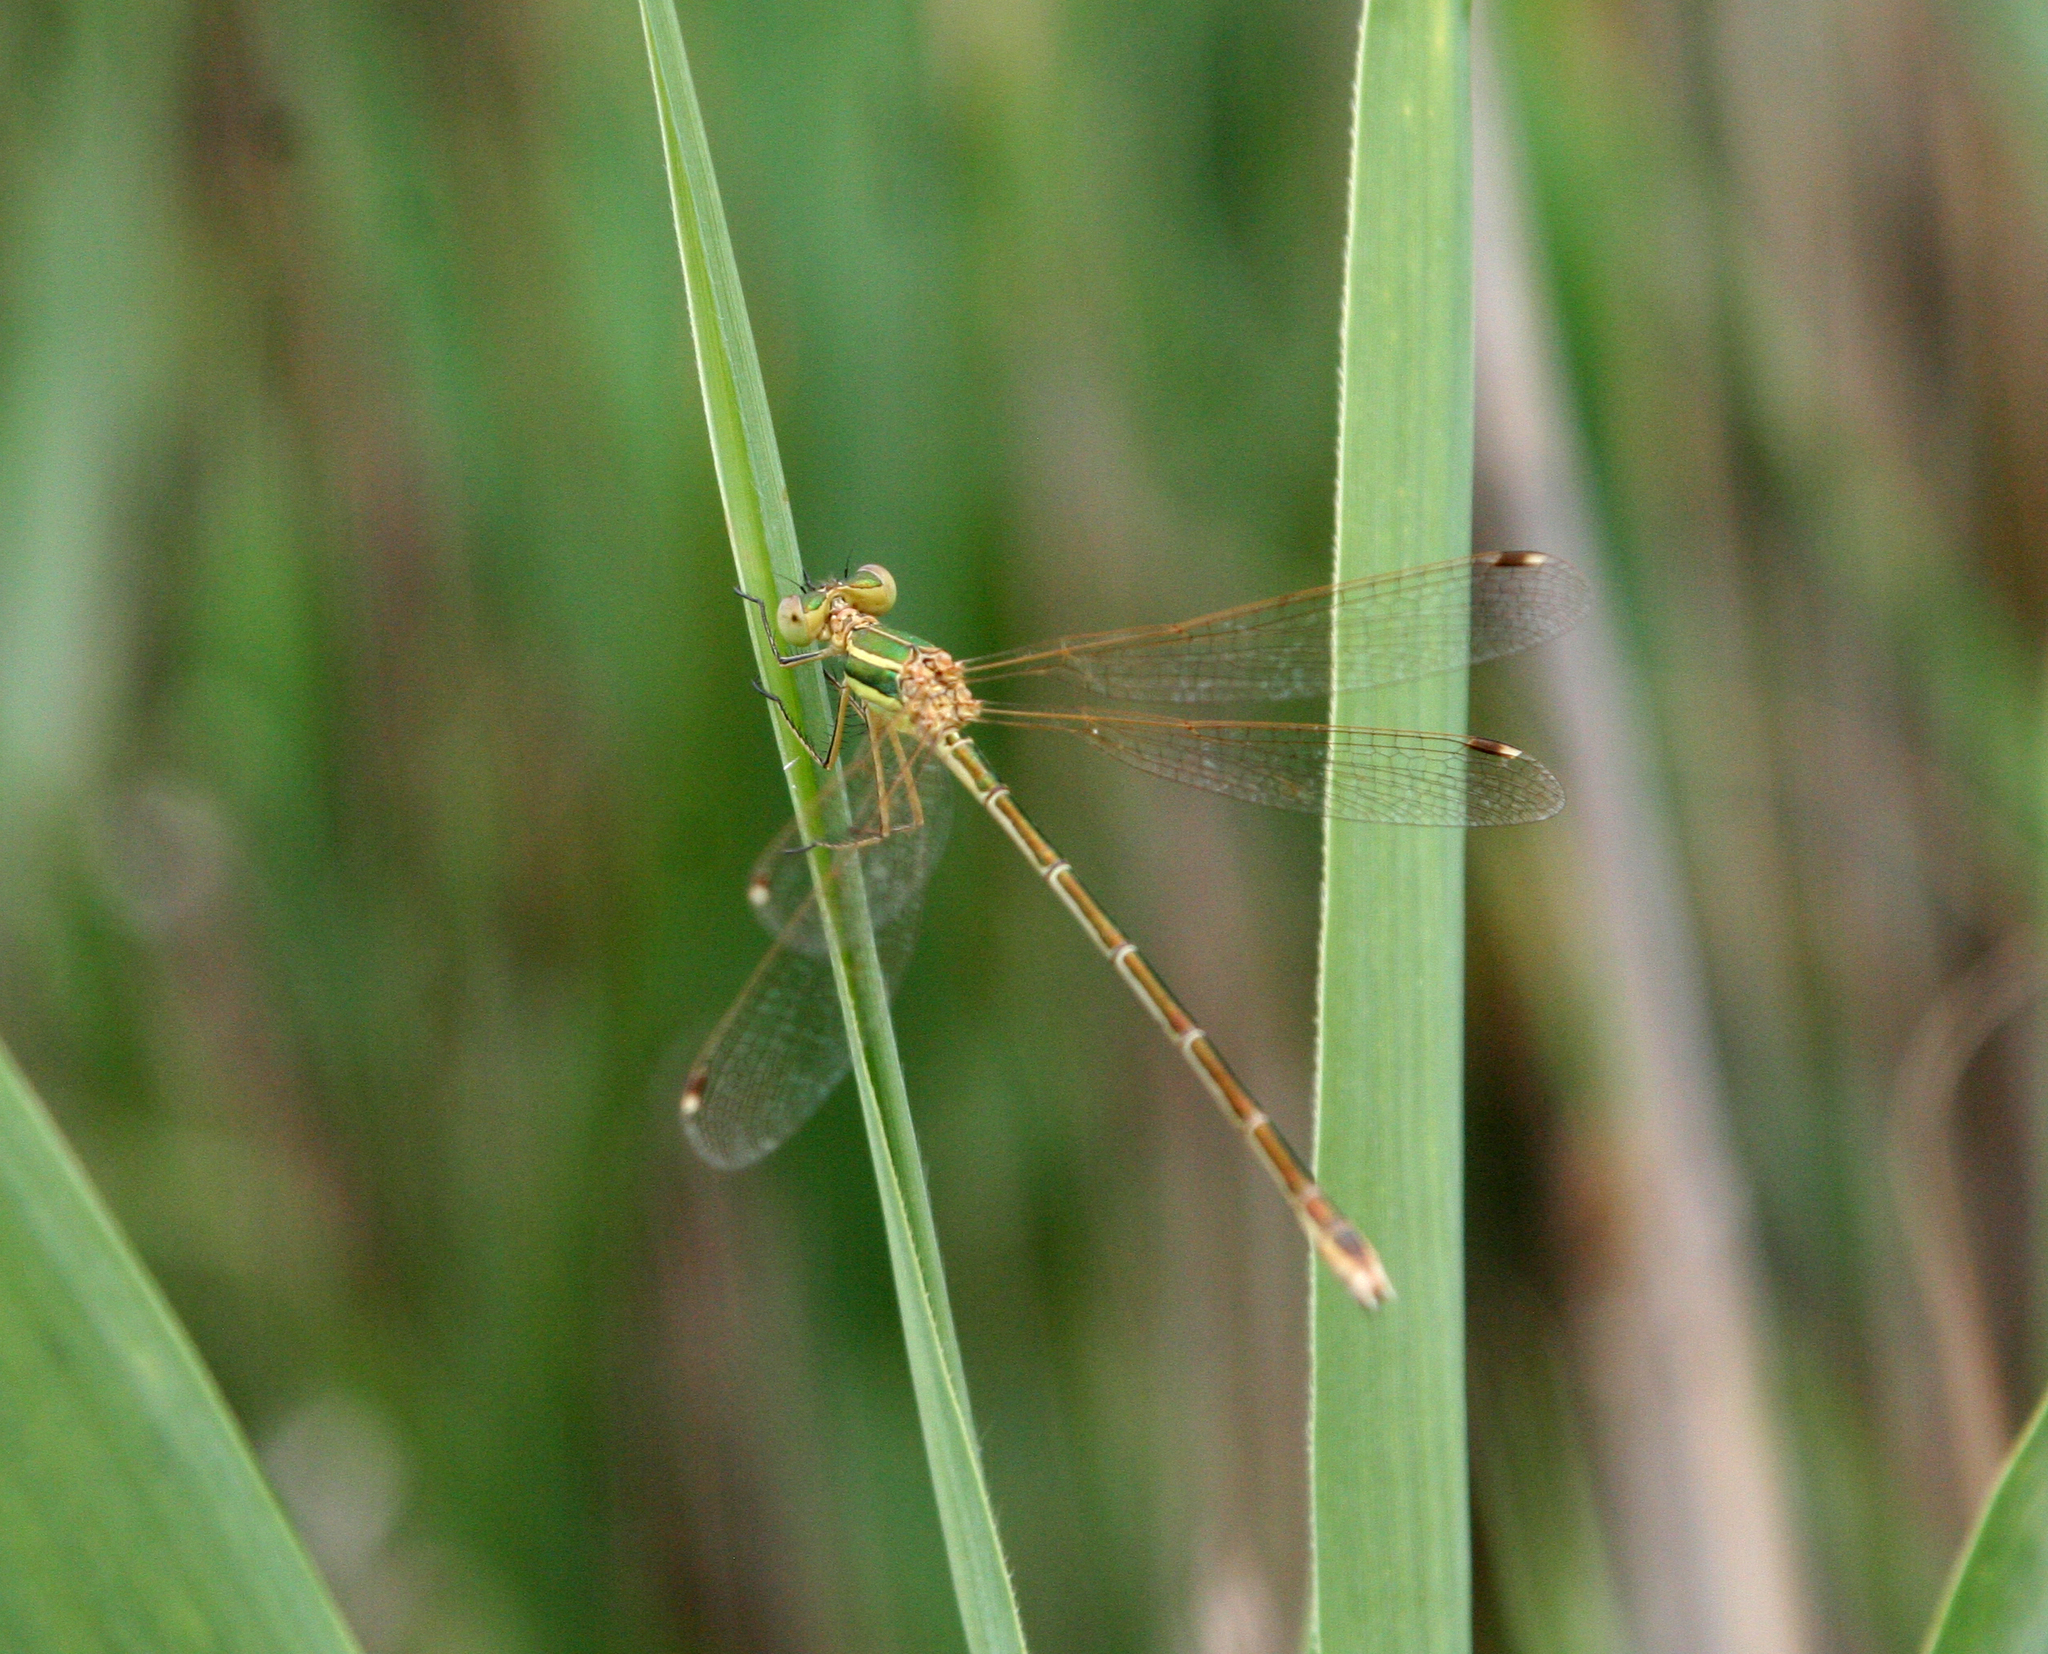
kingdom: Animalia
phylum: Arthropoda
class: Insecta
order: Odonata
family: Lestidae
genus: Lestes
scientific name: Lestes barbarus
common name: Migrant spreadwing
